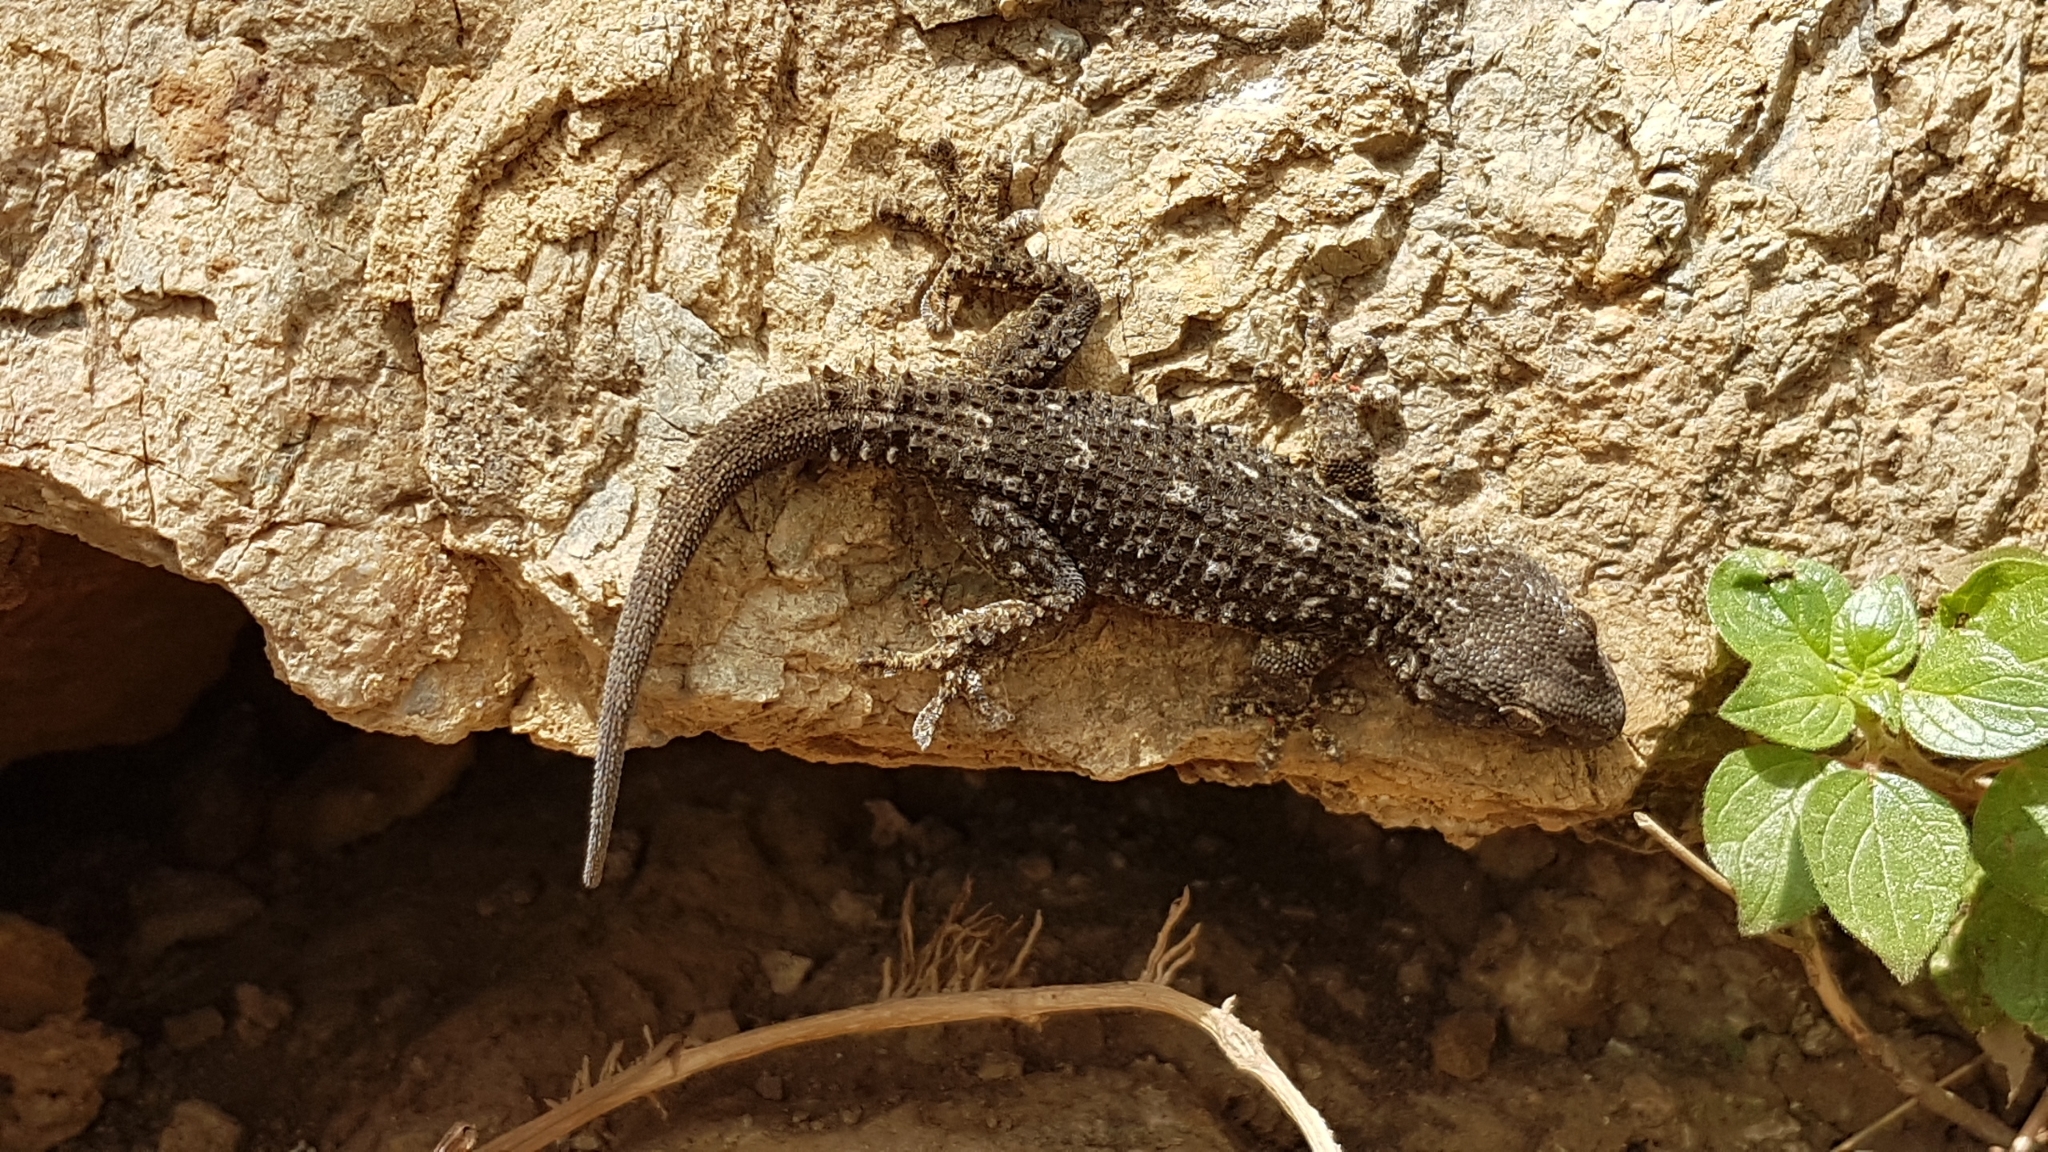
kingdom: Animalia
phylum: Chordata
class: Squamata
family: Phyllodactylidae
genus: Tarentola
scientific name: Tarentola mauritanica
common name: Moorish gecko
